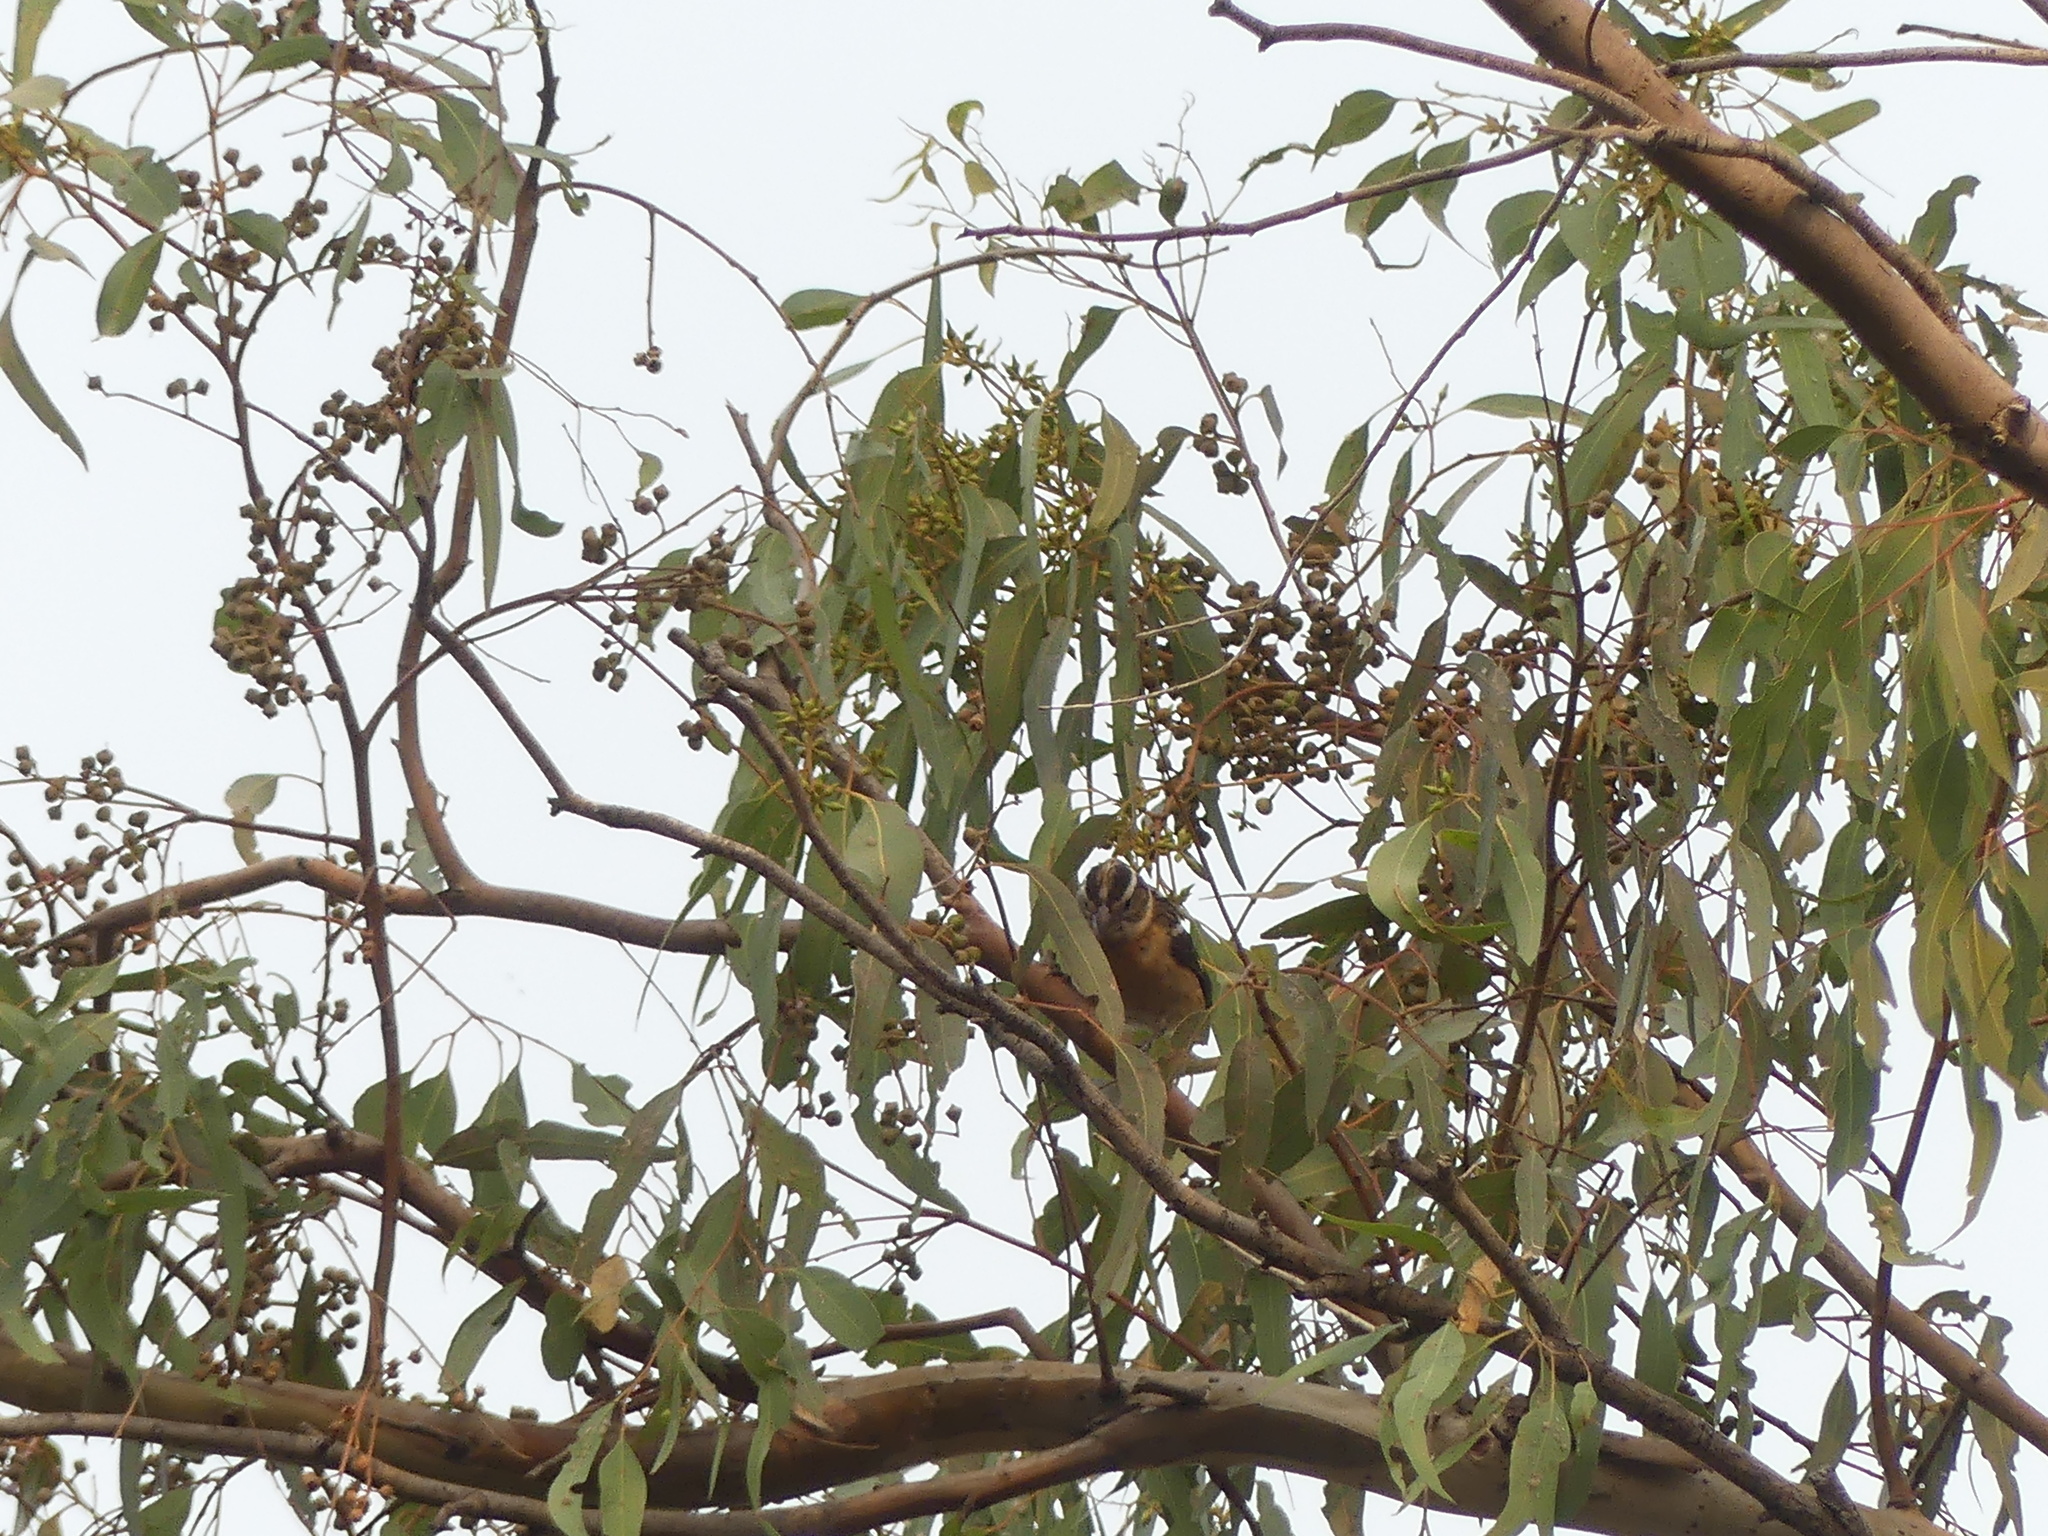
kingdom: Animalia
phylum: Chordata
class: Aves
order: Passeriformes
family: Cardinalidae
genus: Pheucticus
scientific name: Pheucticus melanocephalus
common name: Black-headed grosbeak
